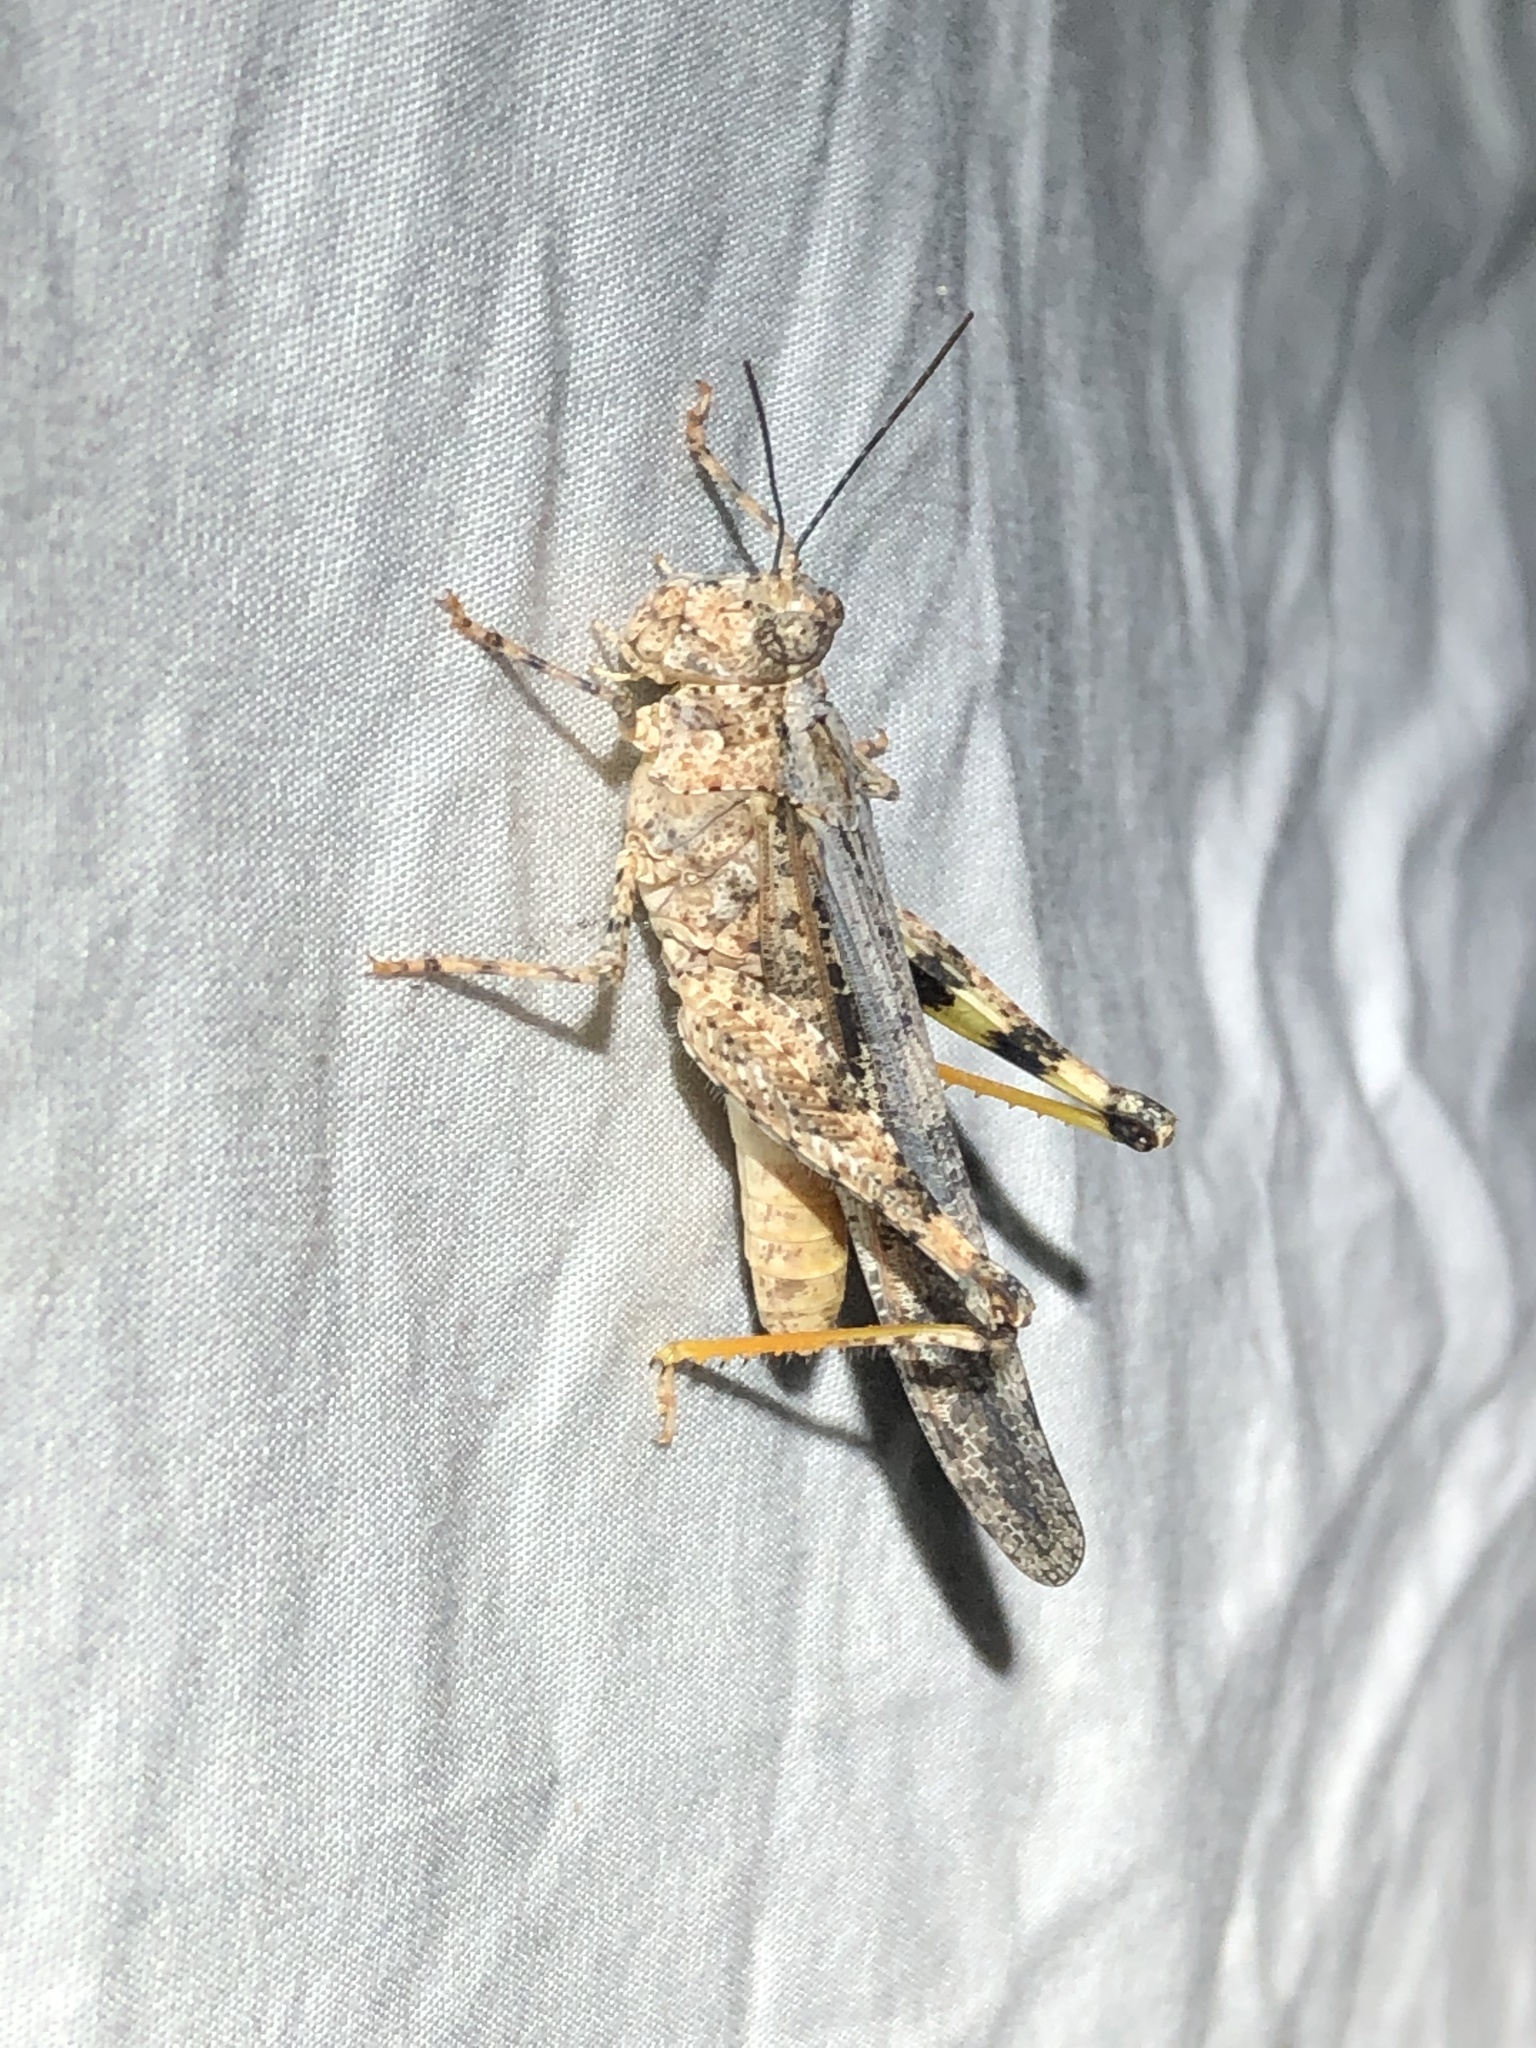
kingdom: Animalia
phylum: Arthropoda
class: Insecta
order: Orthoptera
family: Acrididae
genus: Conozoa
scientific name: Conozoa texana
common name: Cristate grasshopper
